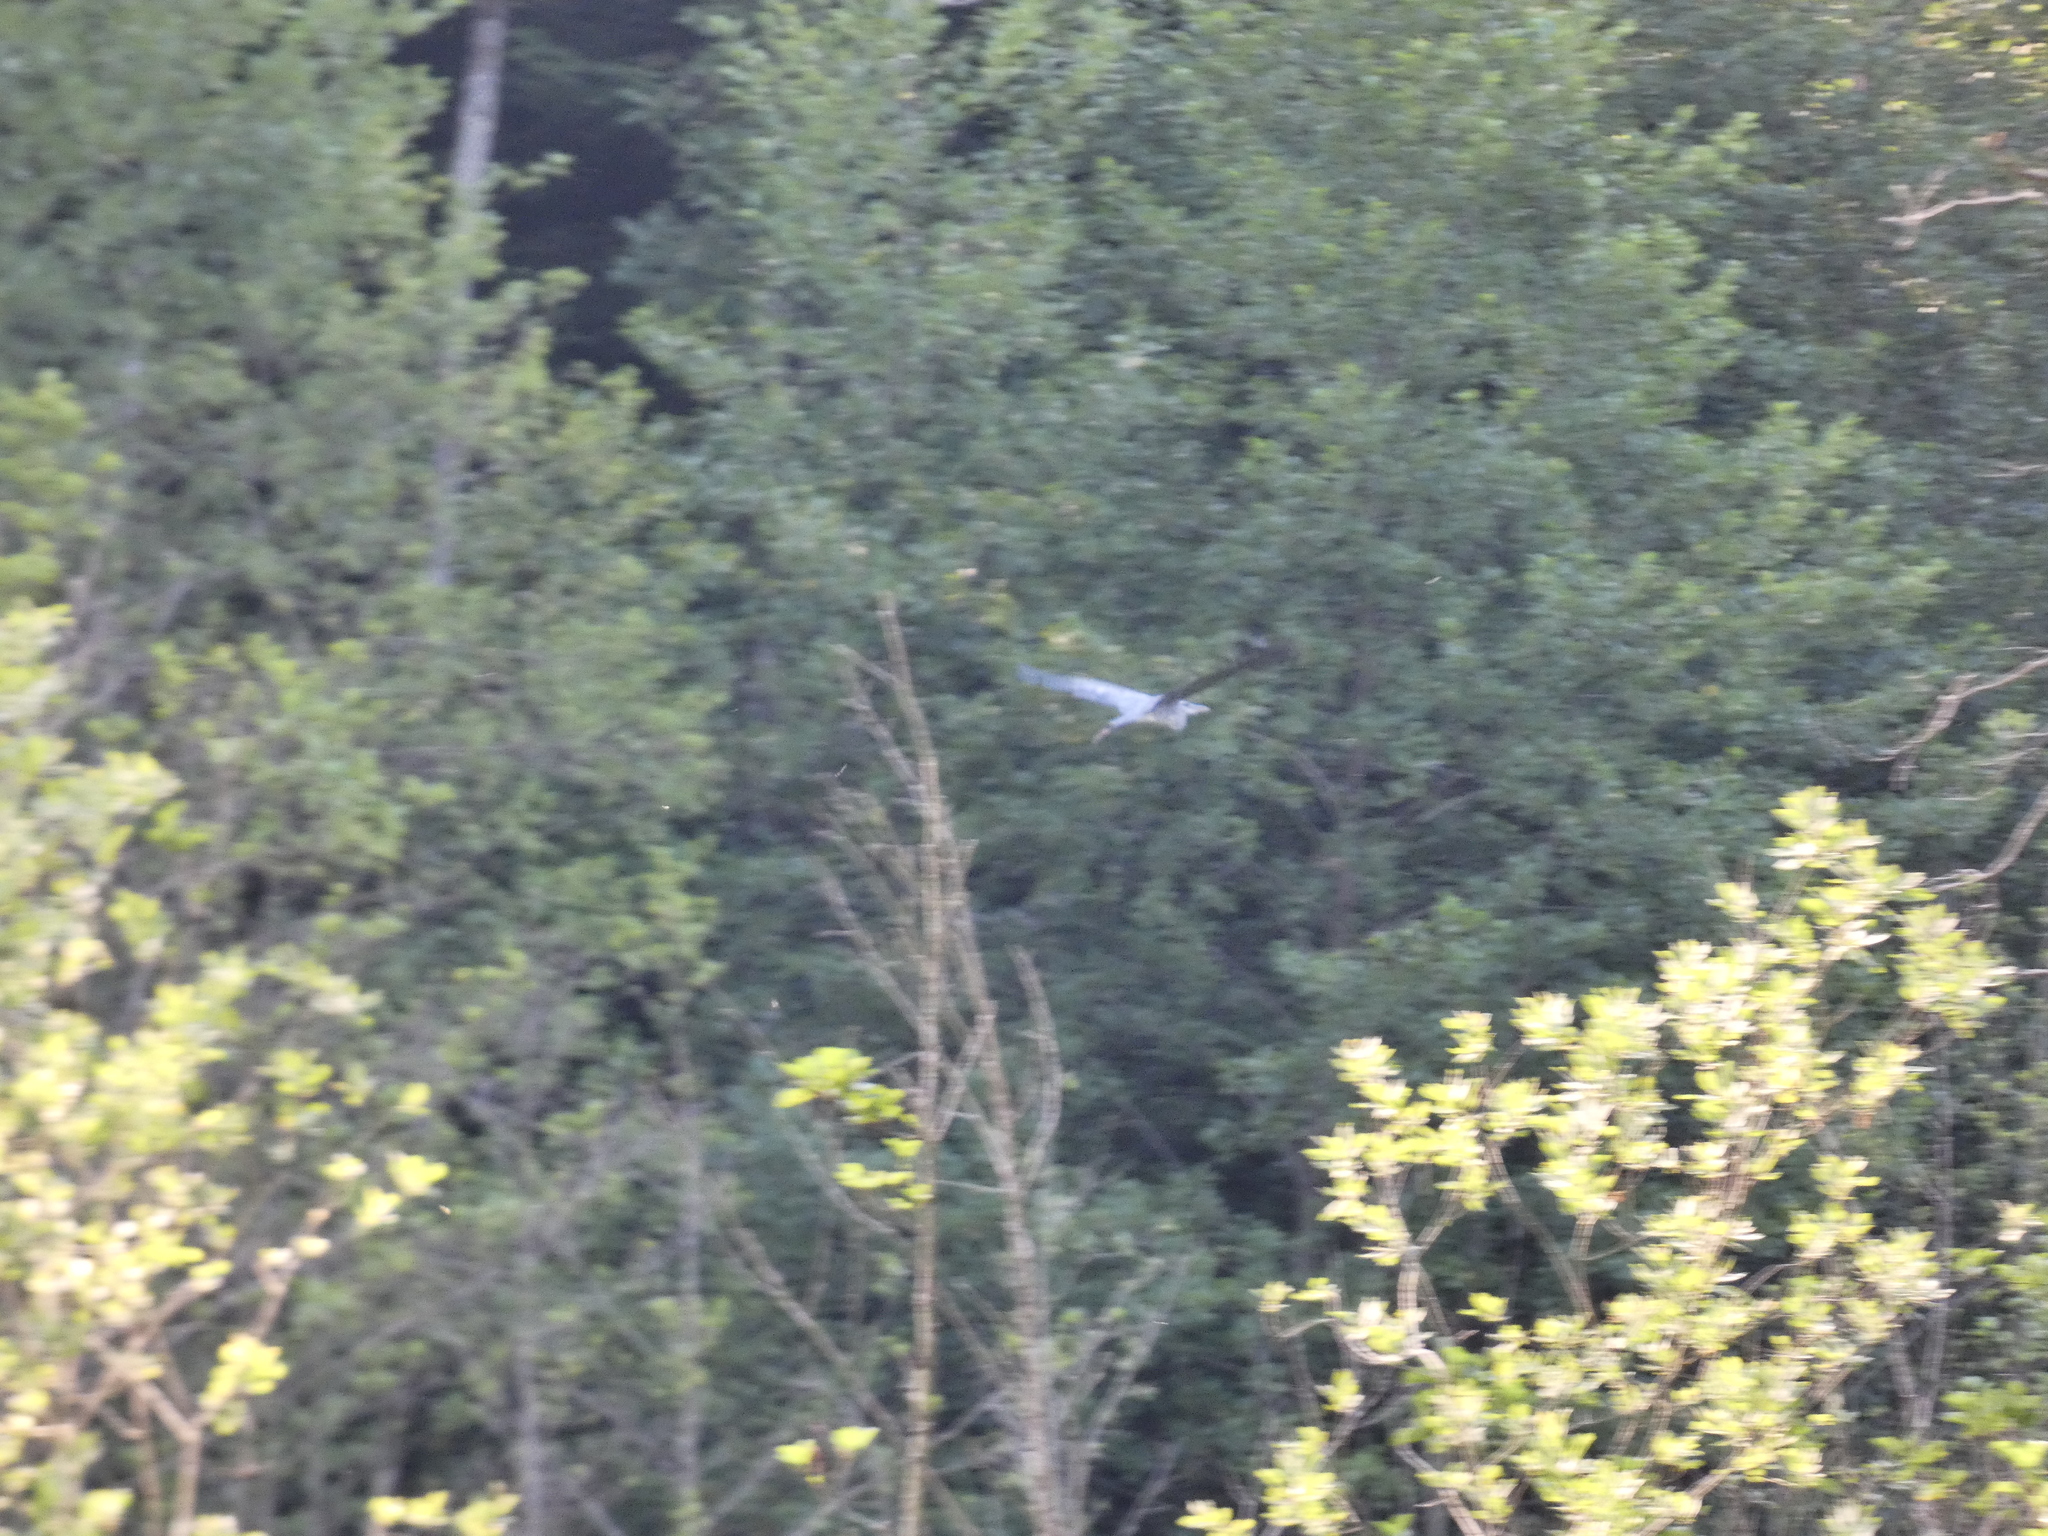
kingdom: Animalia
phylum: Chordata
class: Aves
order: Pelecaniformes
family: Ardeidae
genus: Ardea
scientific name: Ardea cinerea
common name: Grey heron
